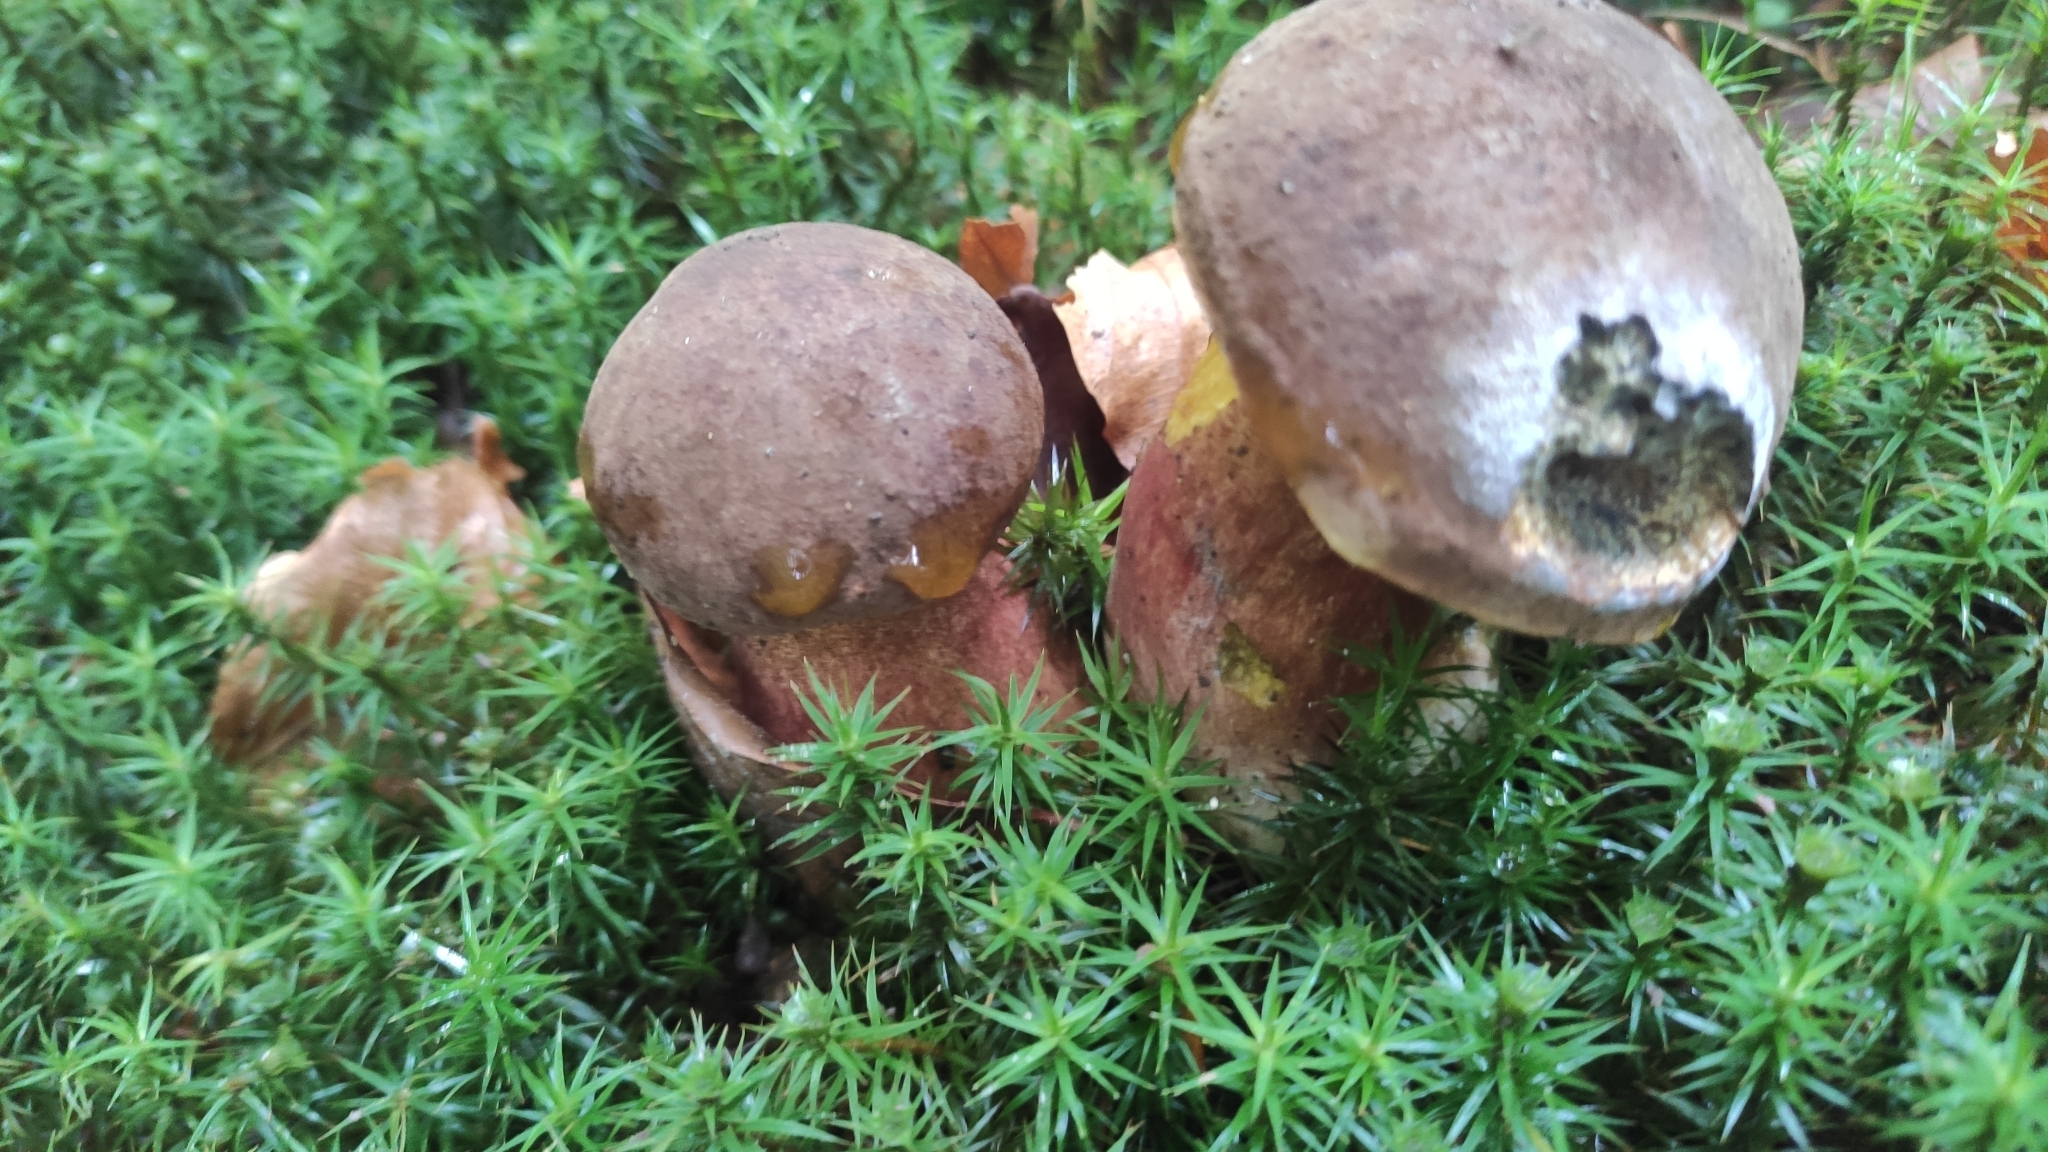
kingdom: Fungi
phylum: Basidiomycota
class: Agaricomycetes
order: Boletales
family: Boletaceae
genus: Neoboletus
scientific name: Neoboletus erythropus
